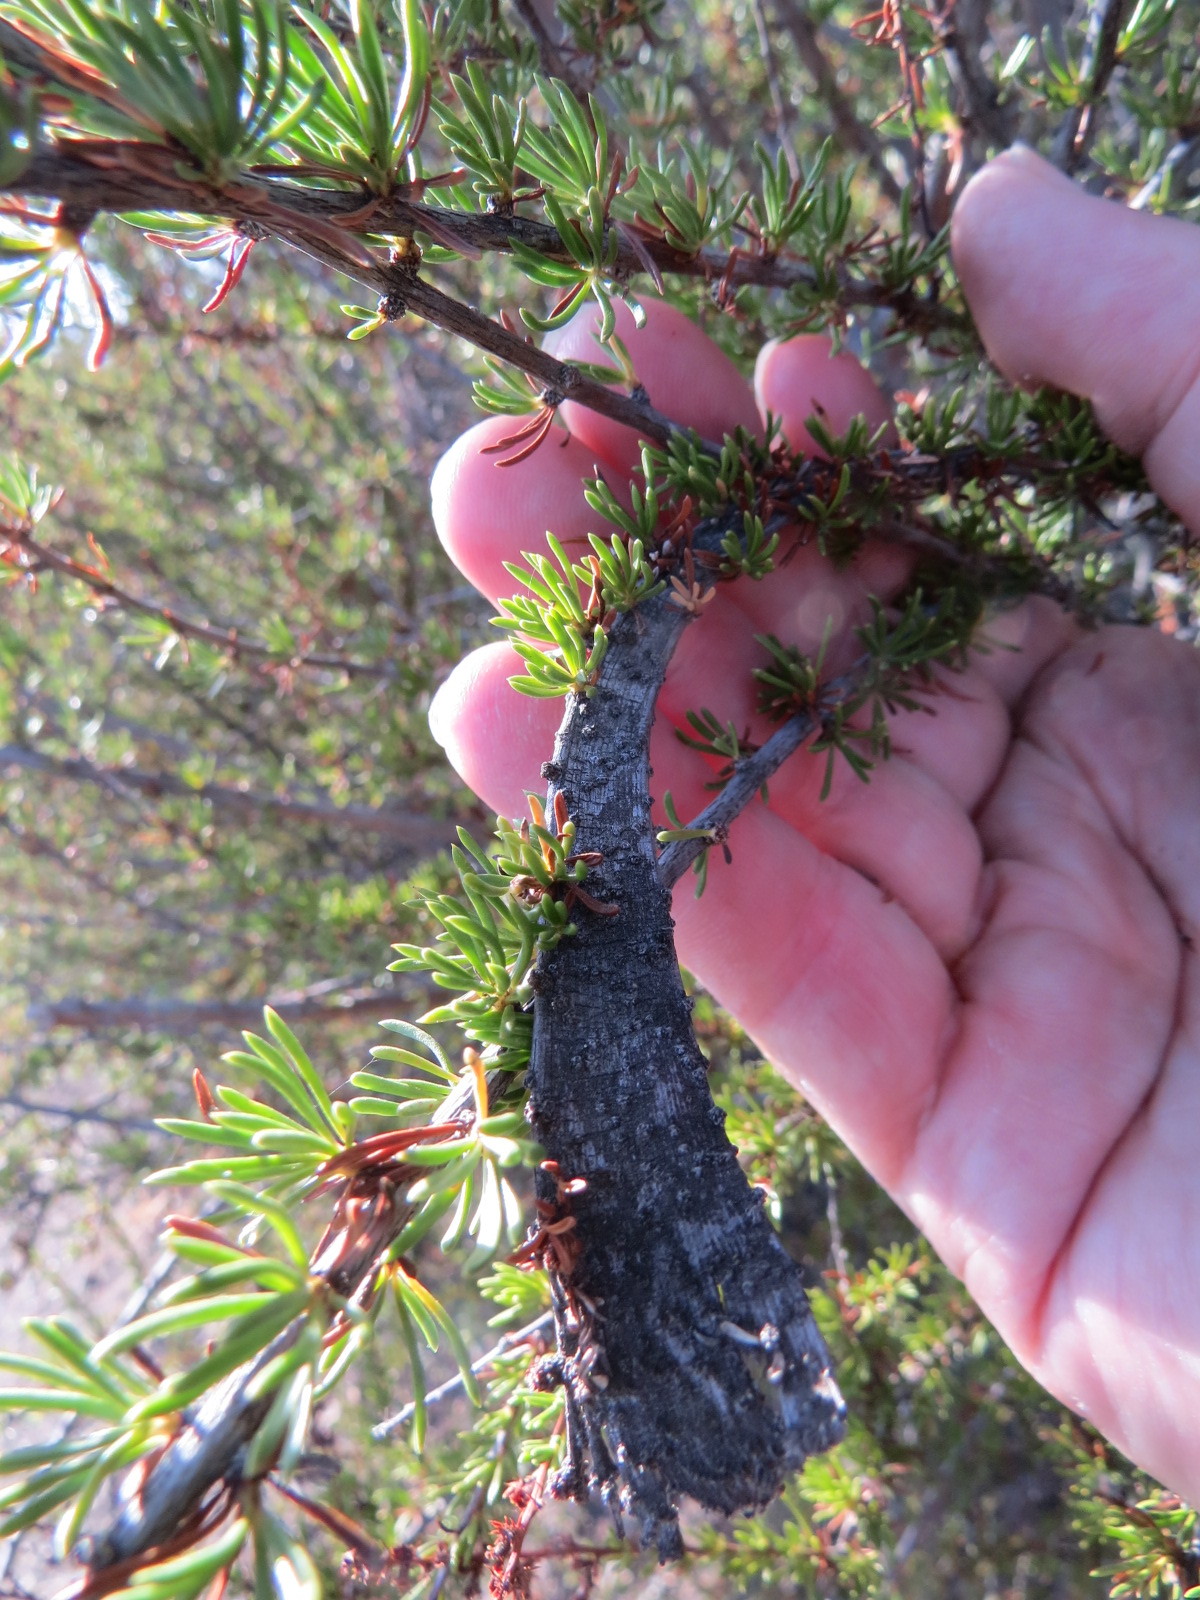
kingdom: Plantae
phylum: Tracheophyta
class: Magnoliopsida
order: Rosales
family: Rosaceae
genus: Adenostoma
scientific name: Adenostoma fasciculatum
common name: Chamise
